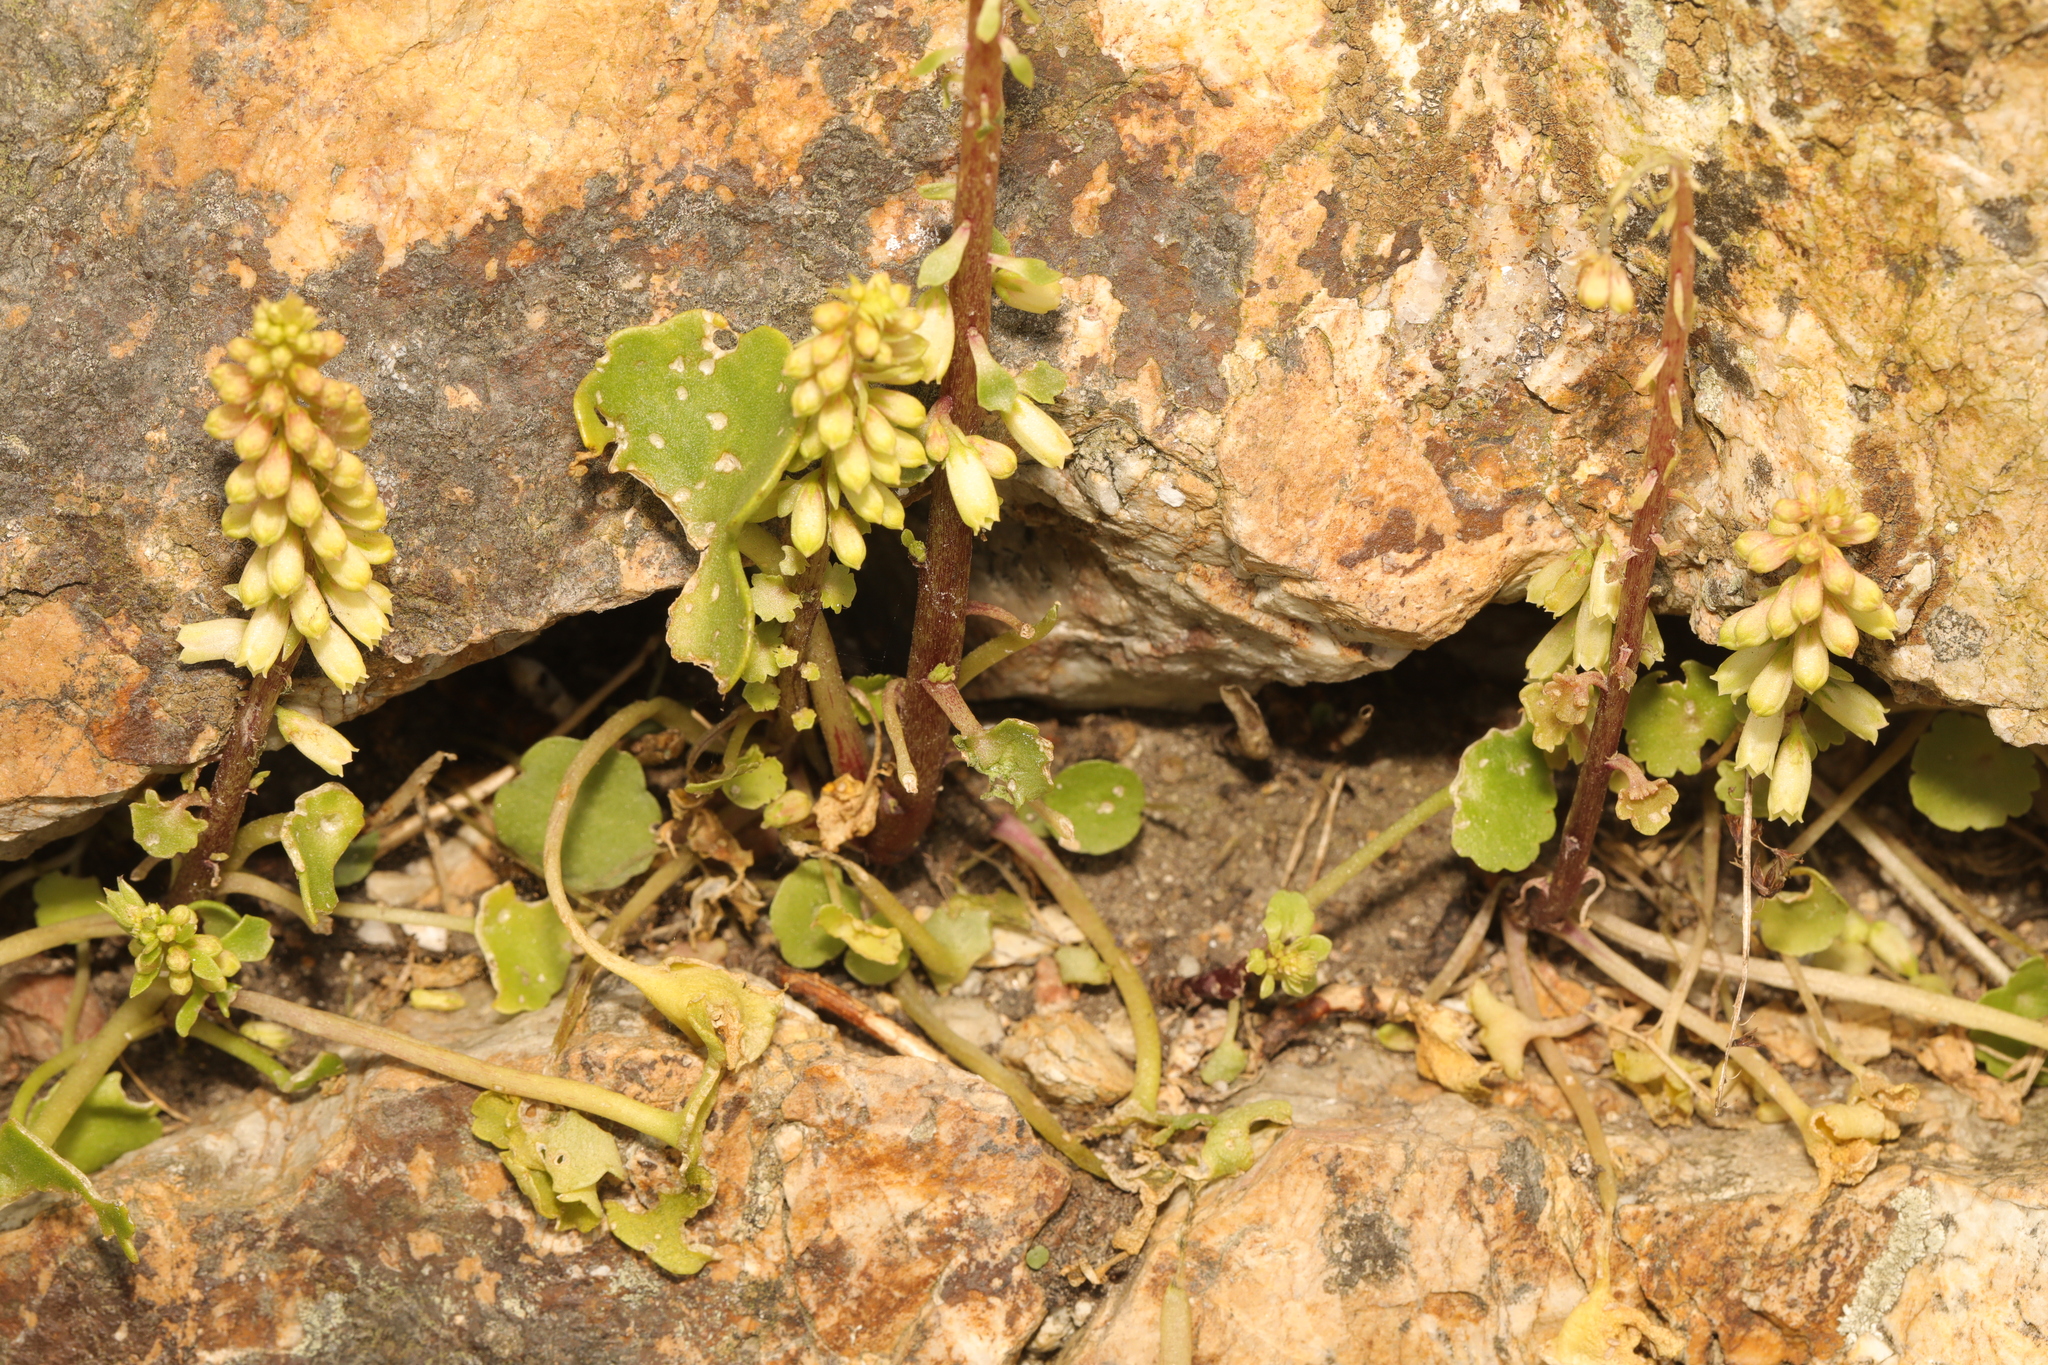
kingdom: Plantae
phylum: Tracheophyta
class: Magnoliopsida
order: Saxifragales
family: Crassulaceae
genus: Umbilicus
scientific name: Umbilicus rupestris
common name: Navelwort
